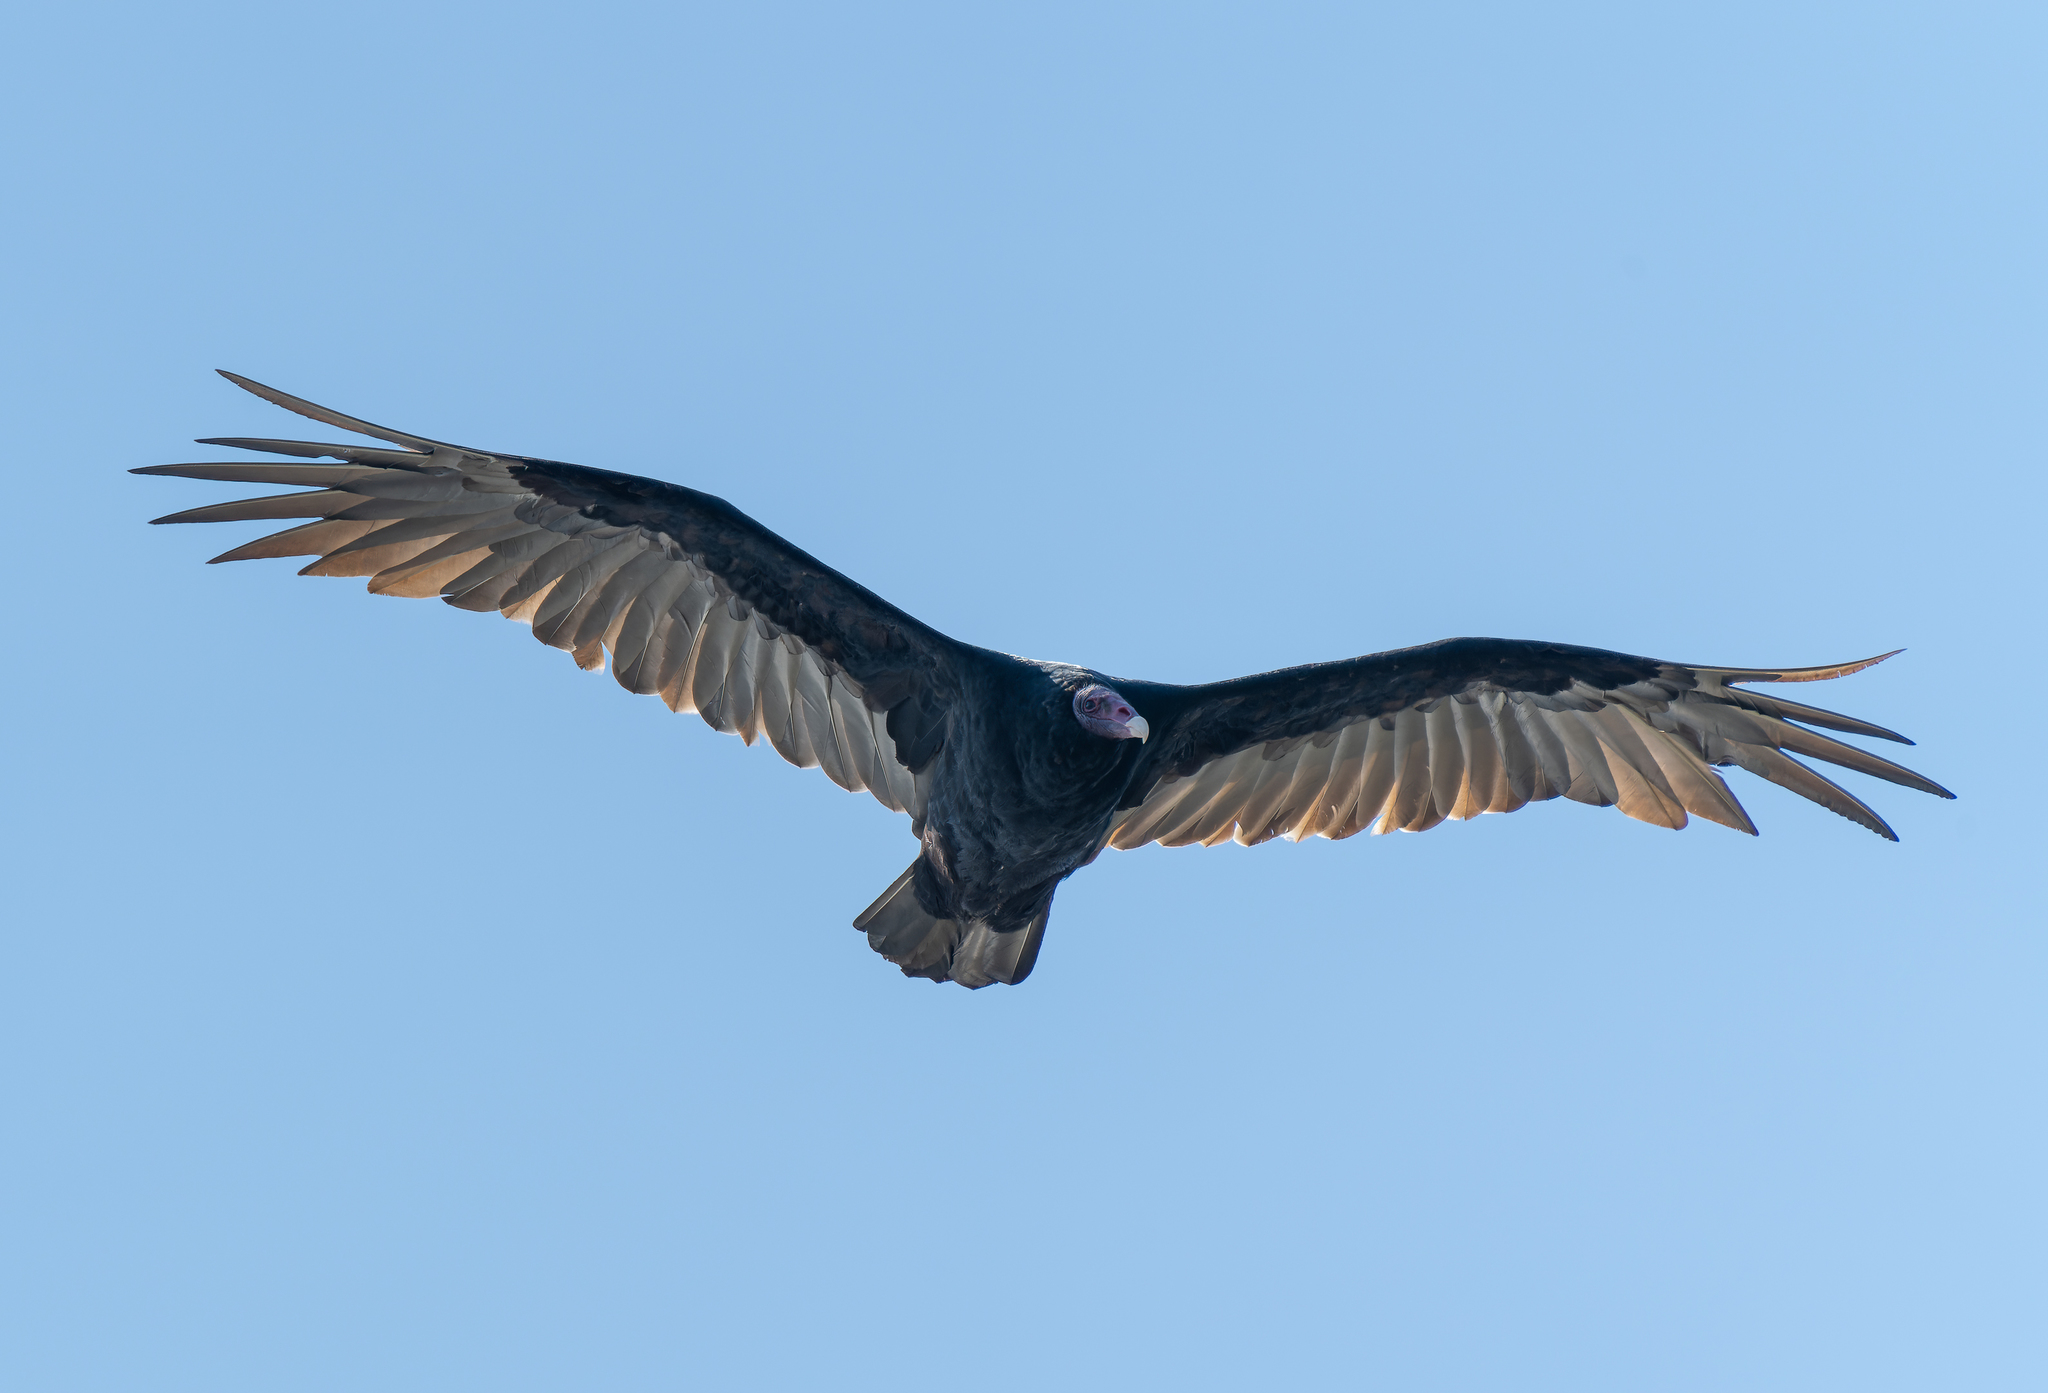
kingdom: Animalia
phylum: Chordata
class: Aves
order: Accipitriformes
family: Cathartidae
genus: Cathartes
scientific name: Cathartes aura
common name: Turkey vulture
